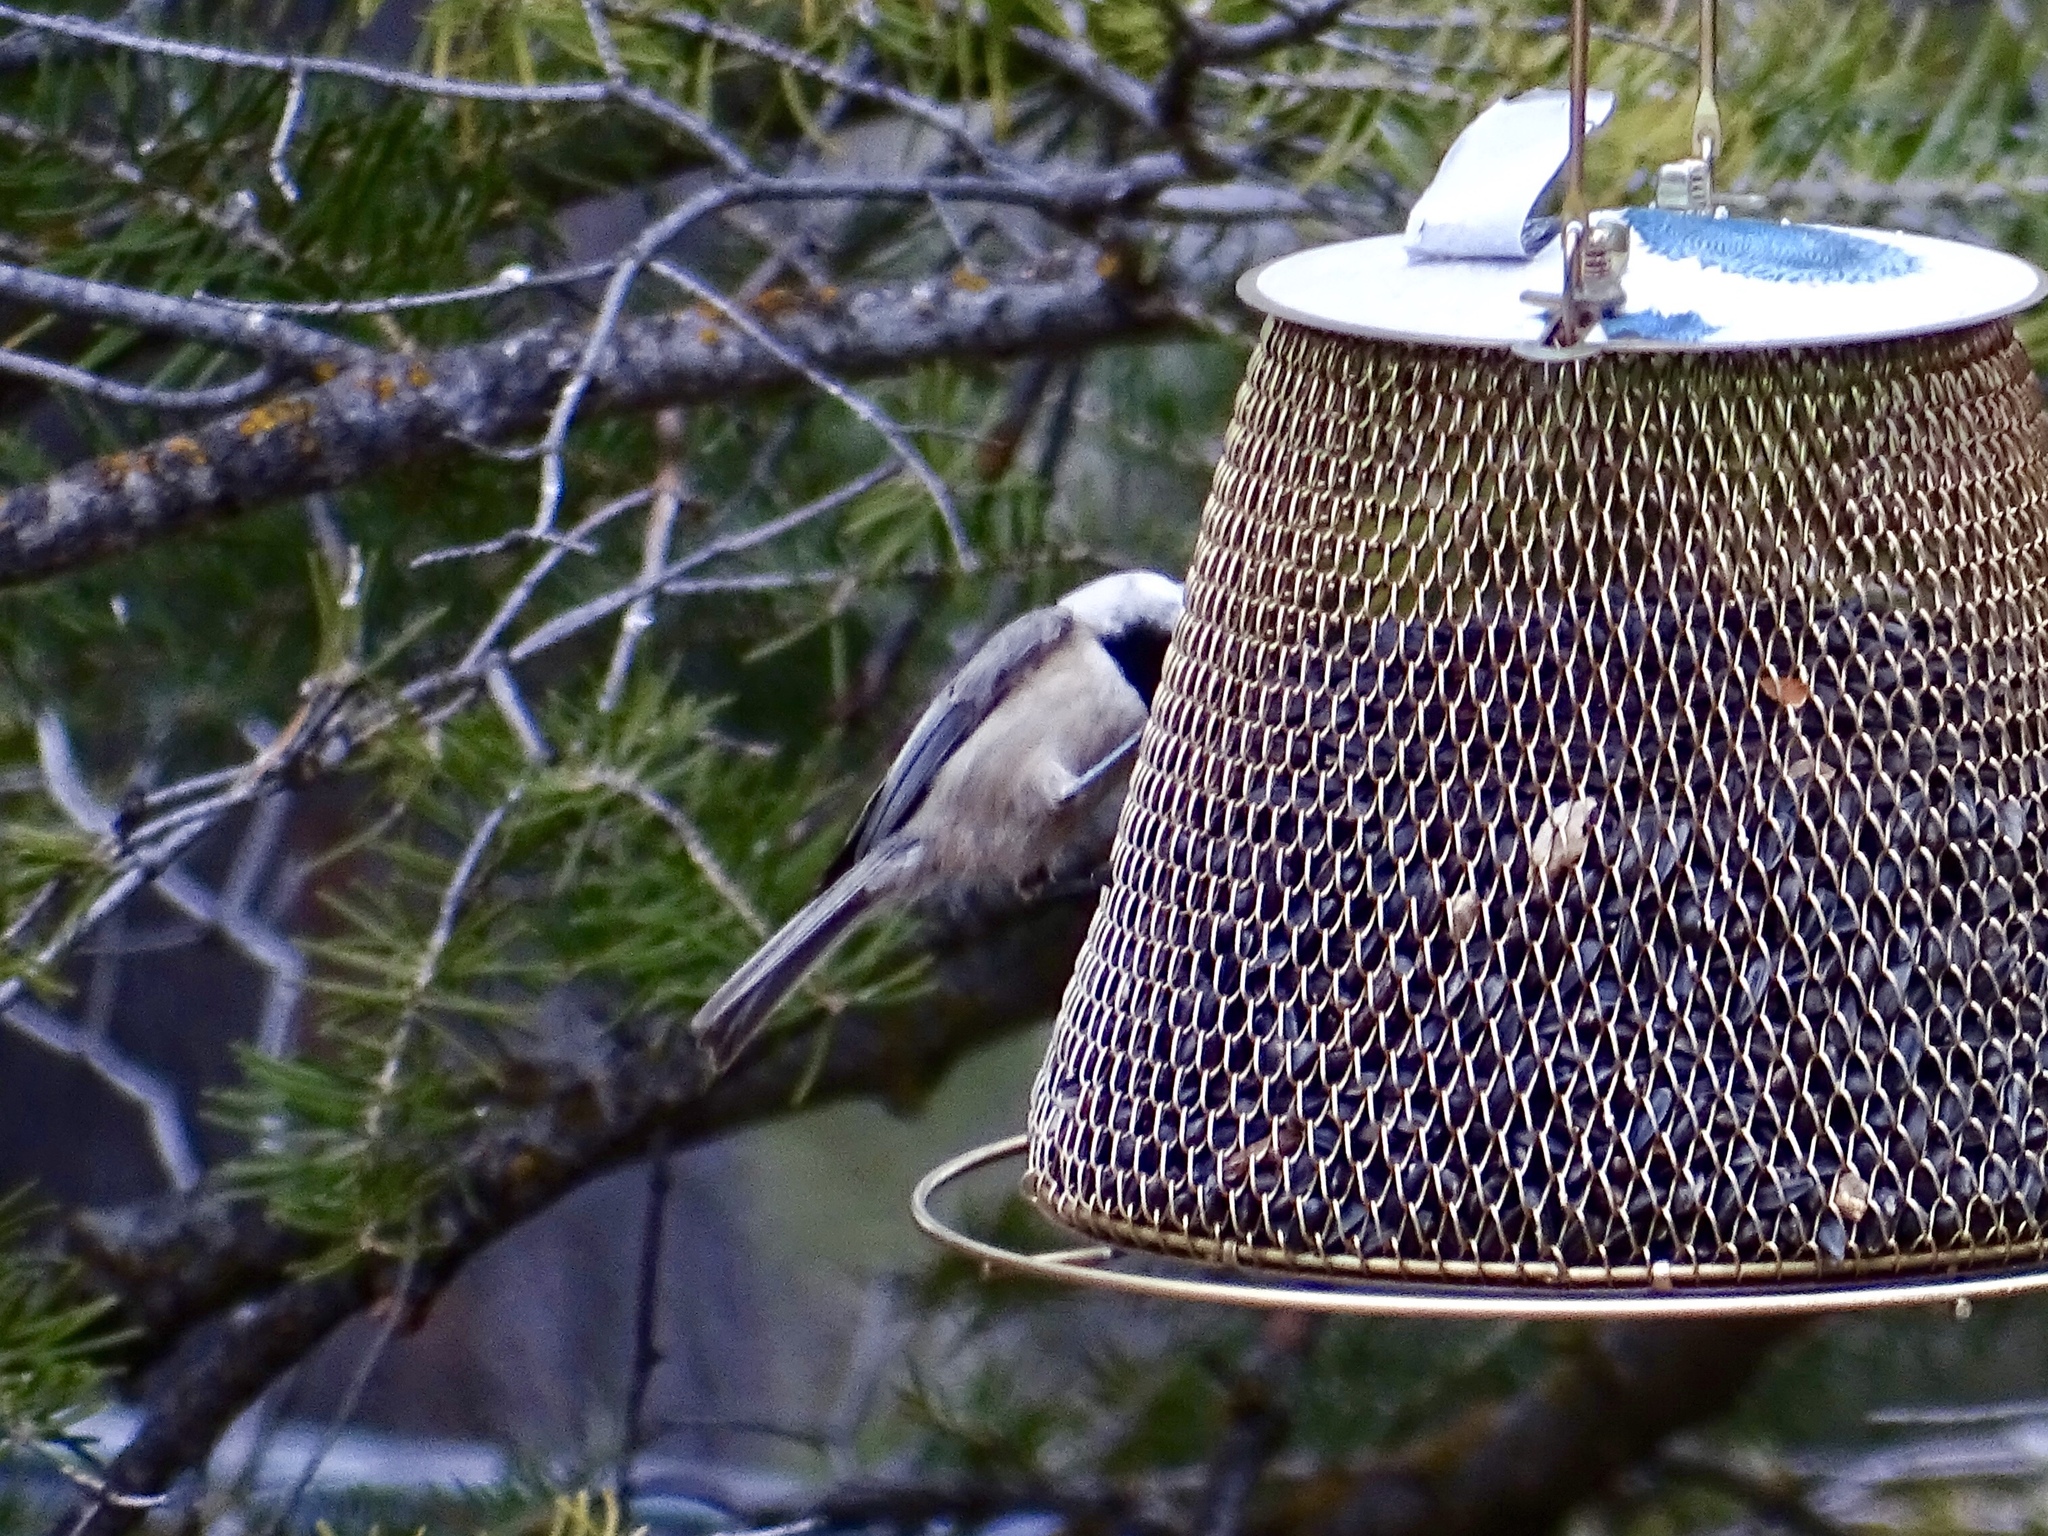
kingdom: Animalia
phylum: Chordata
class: Aves
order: Passeriformes
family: Paridae
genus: Poecile
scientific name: Poecile gambeli
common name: Mountain chickadee
